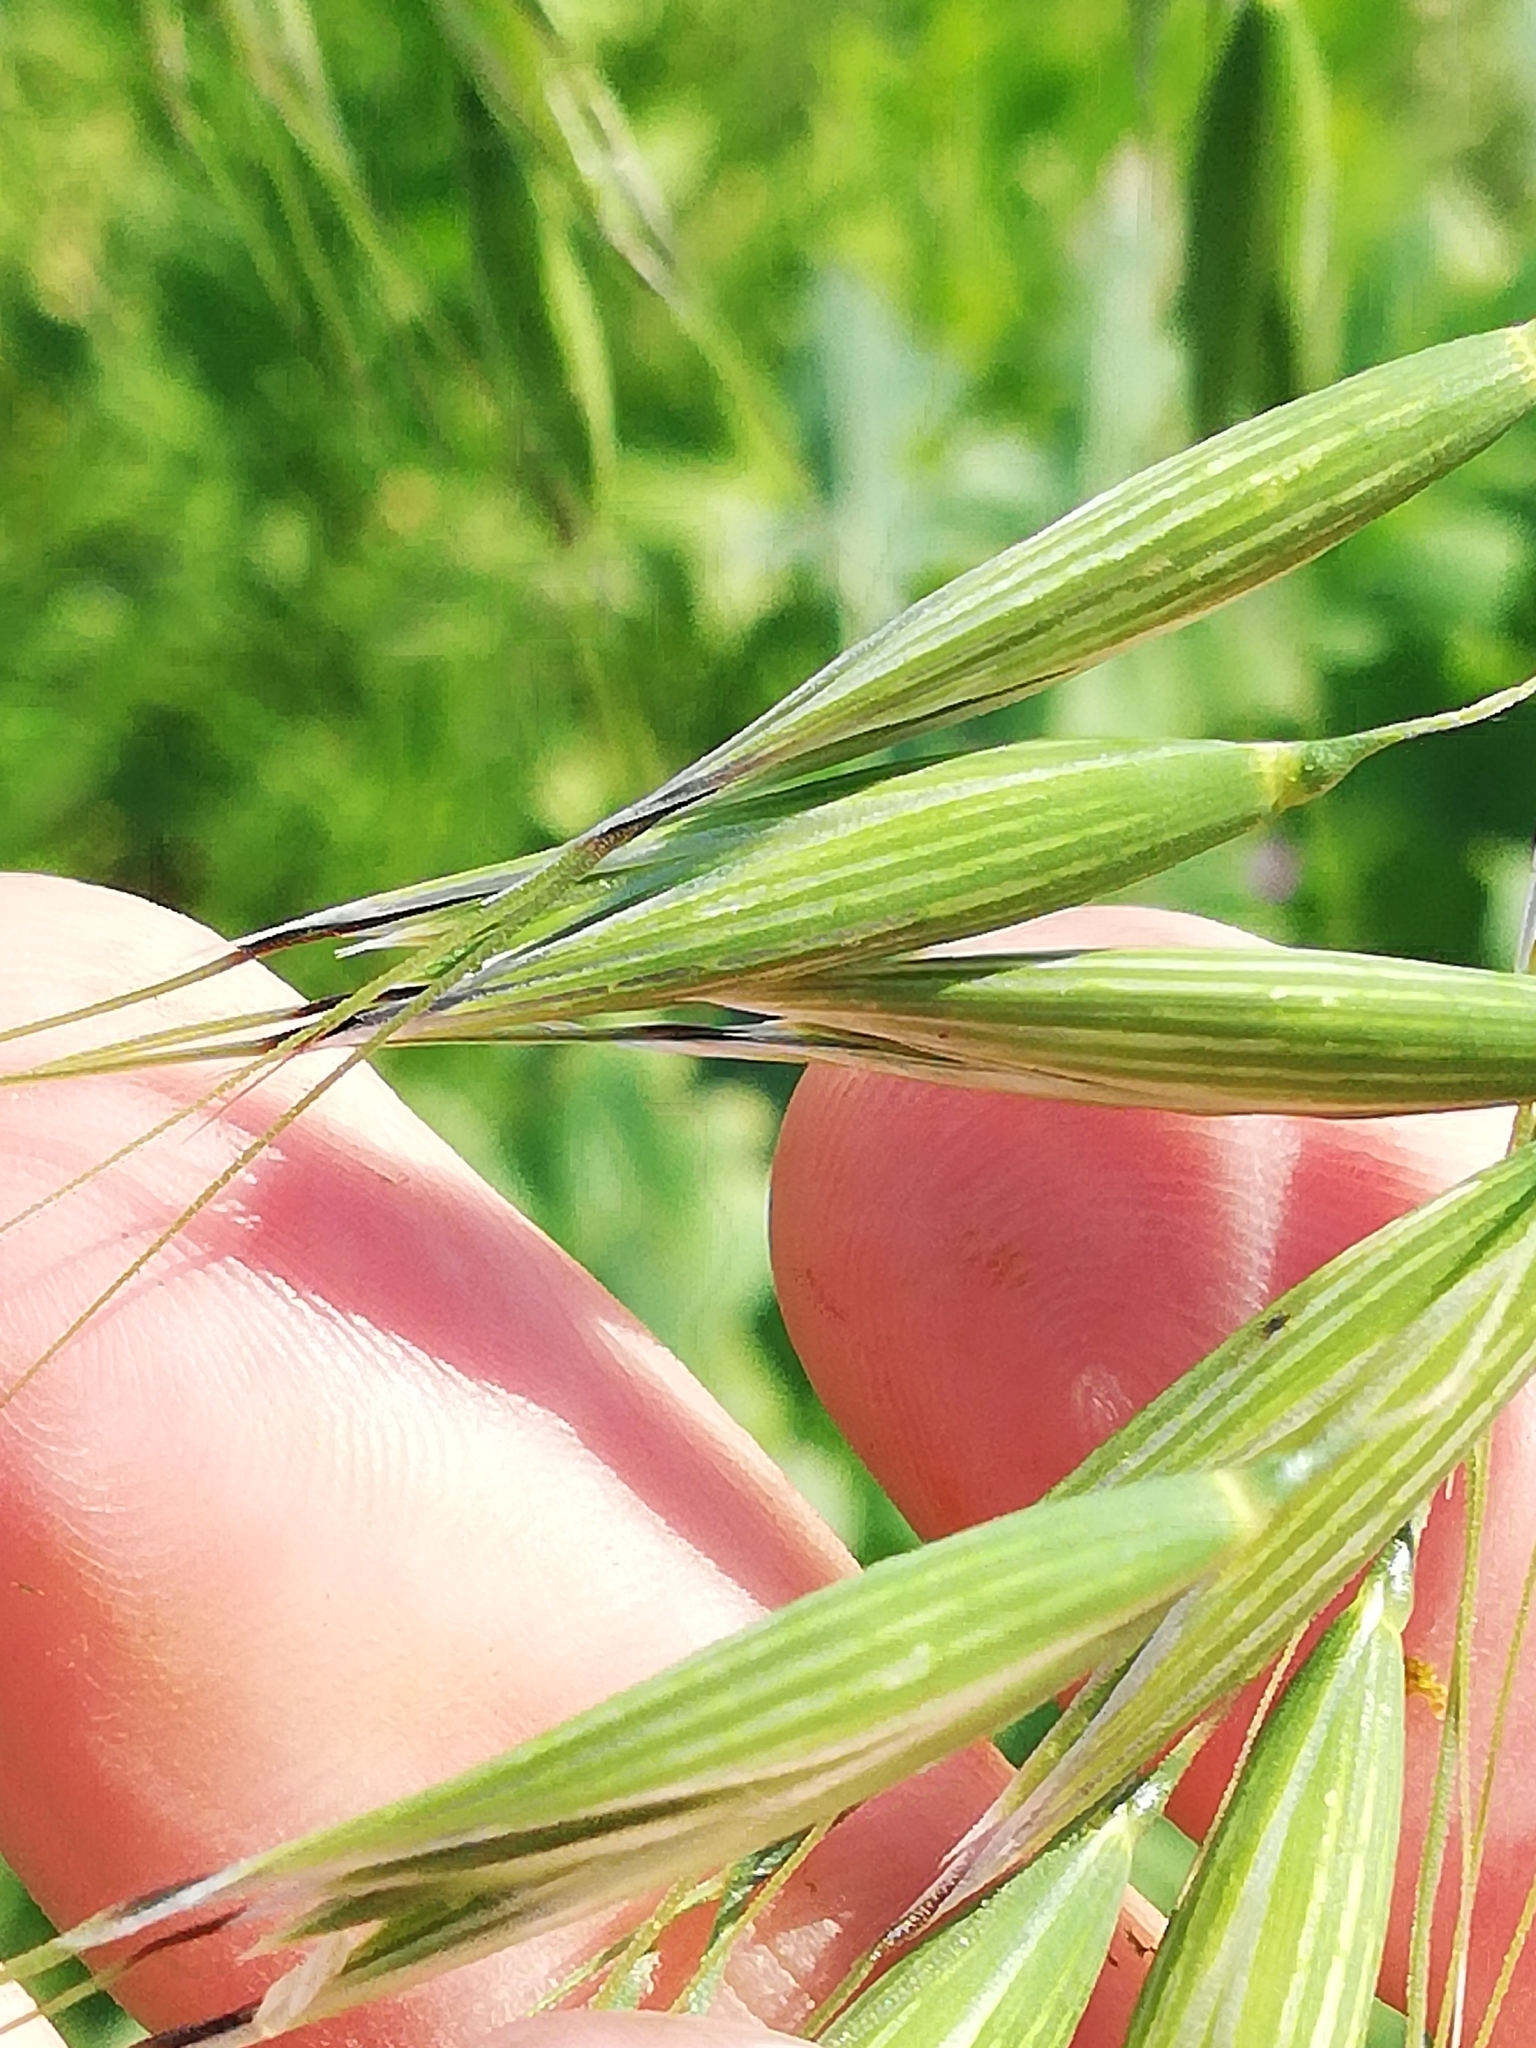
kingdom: Plantae
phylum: Tracheophyta
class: Liliopsida
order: Poales
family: Poaceae
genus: Avena
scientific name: Avena fatua
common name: Wild oat
